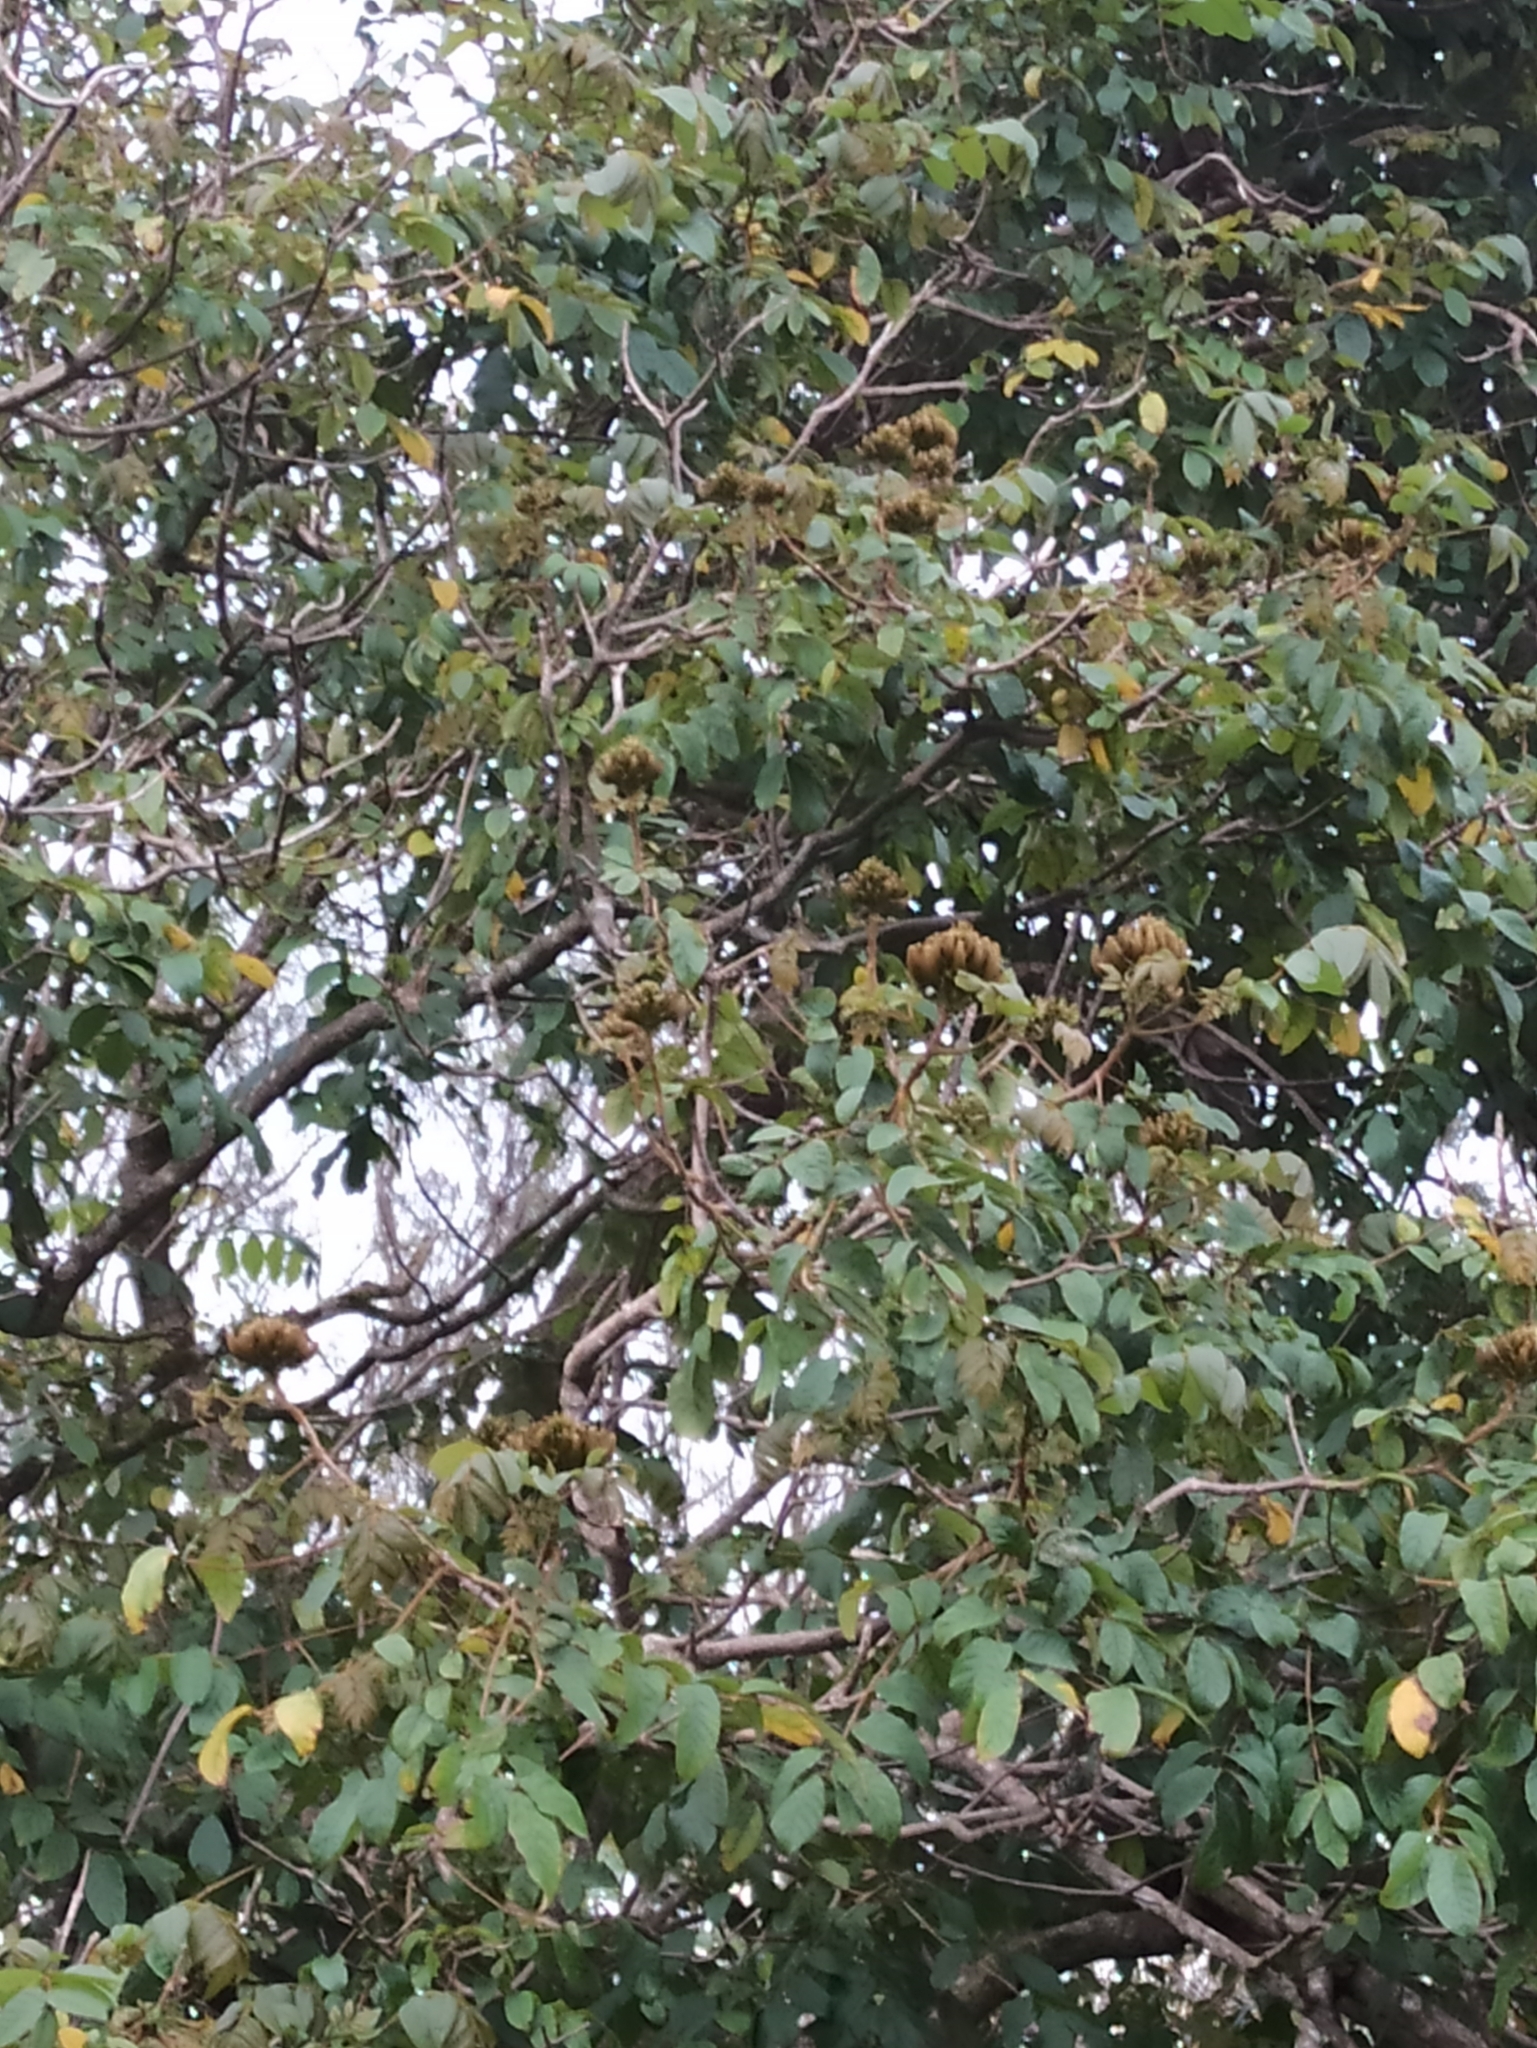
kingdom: Plantae
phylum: Tracheophyta
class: Magnoliopsida
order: Lamiales
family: Bignoniaceae
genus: Spathodea
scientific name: Spathodea campanulata
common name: African tuliptree
